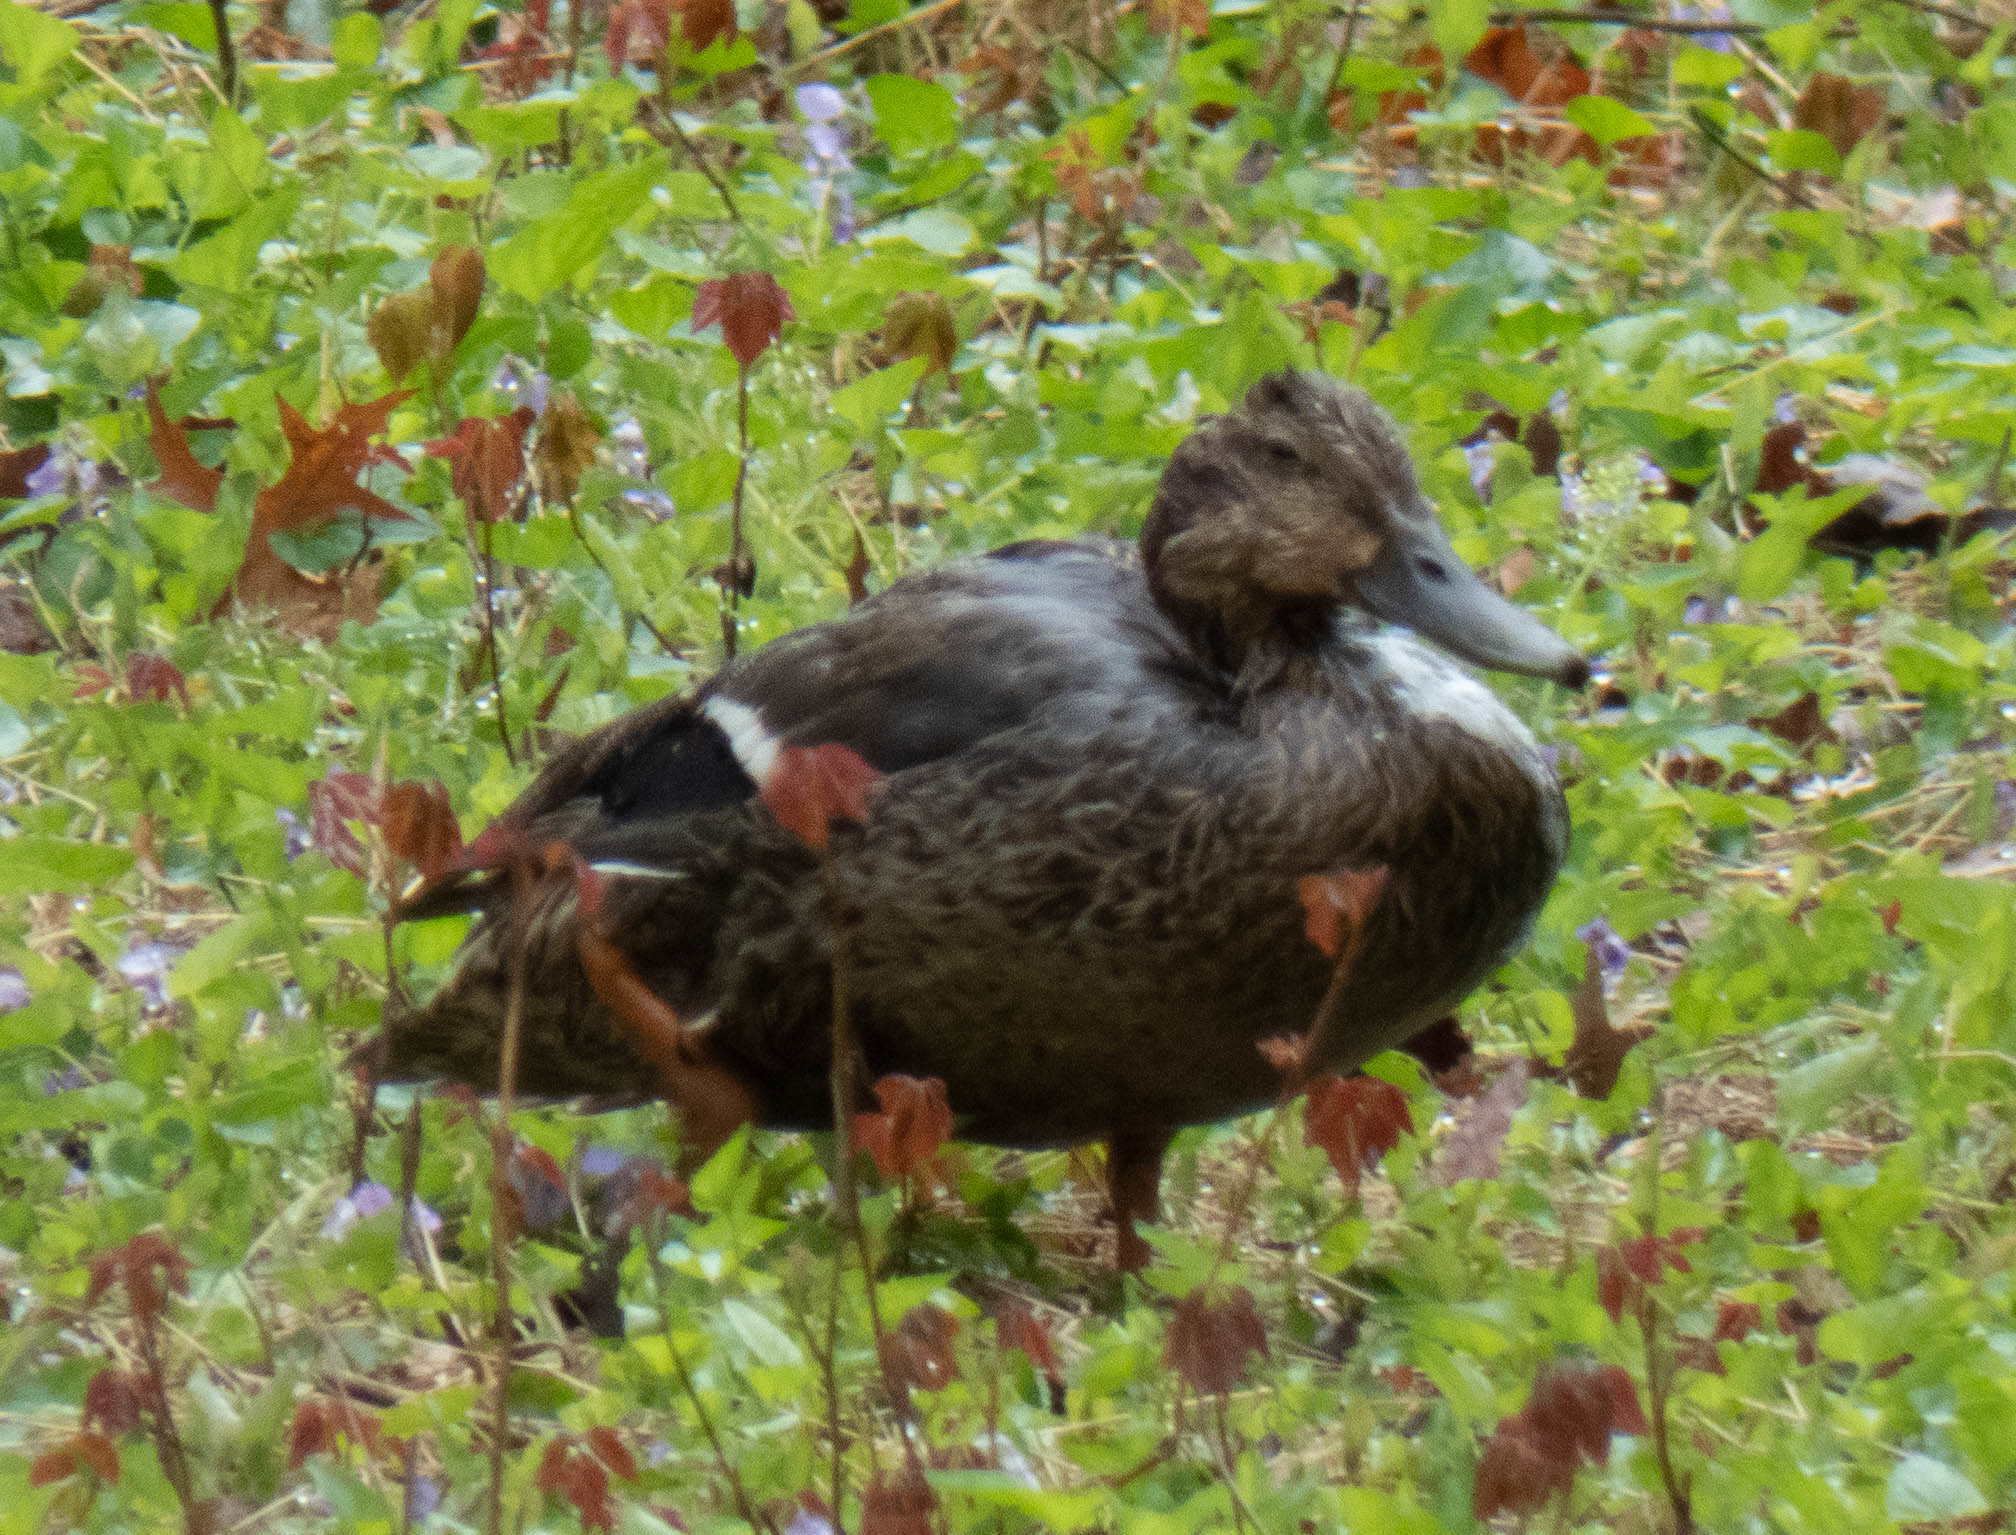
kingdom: Animalia
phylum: Chordata
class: Aves
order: Anseriformes
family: Anatidae
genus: Anas
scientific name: Anas platyrhynchos
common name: Mallard
